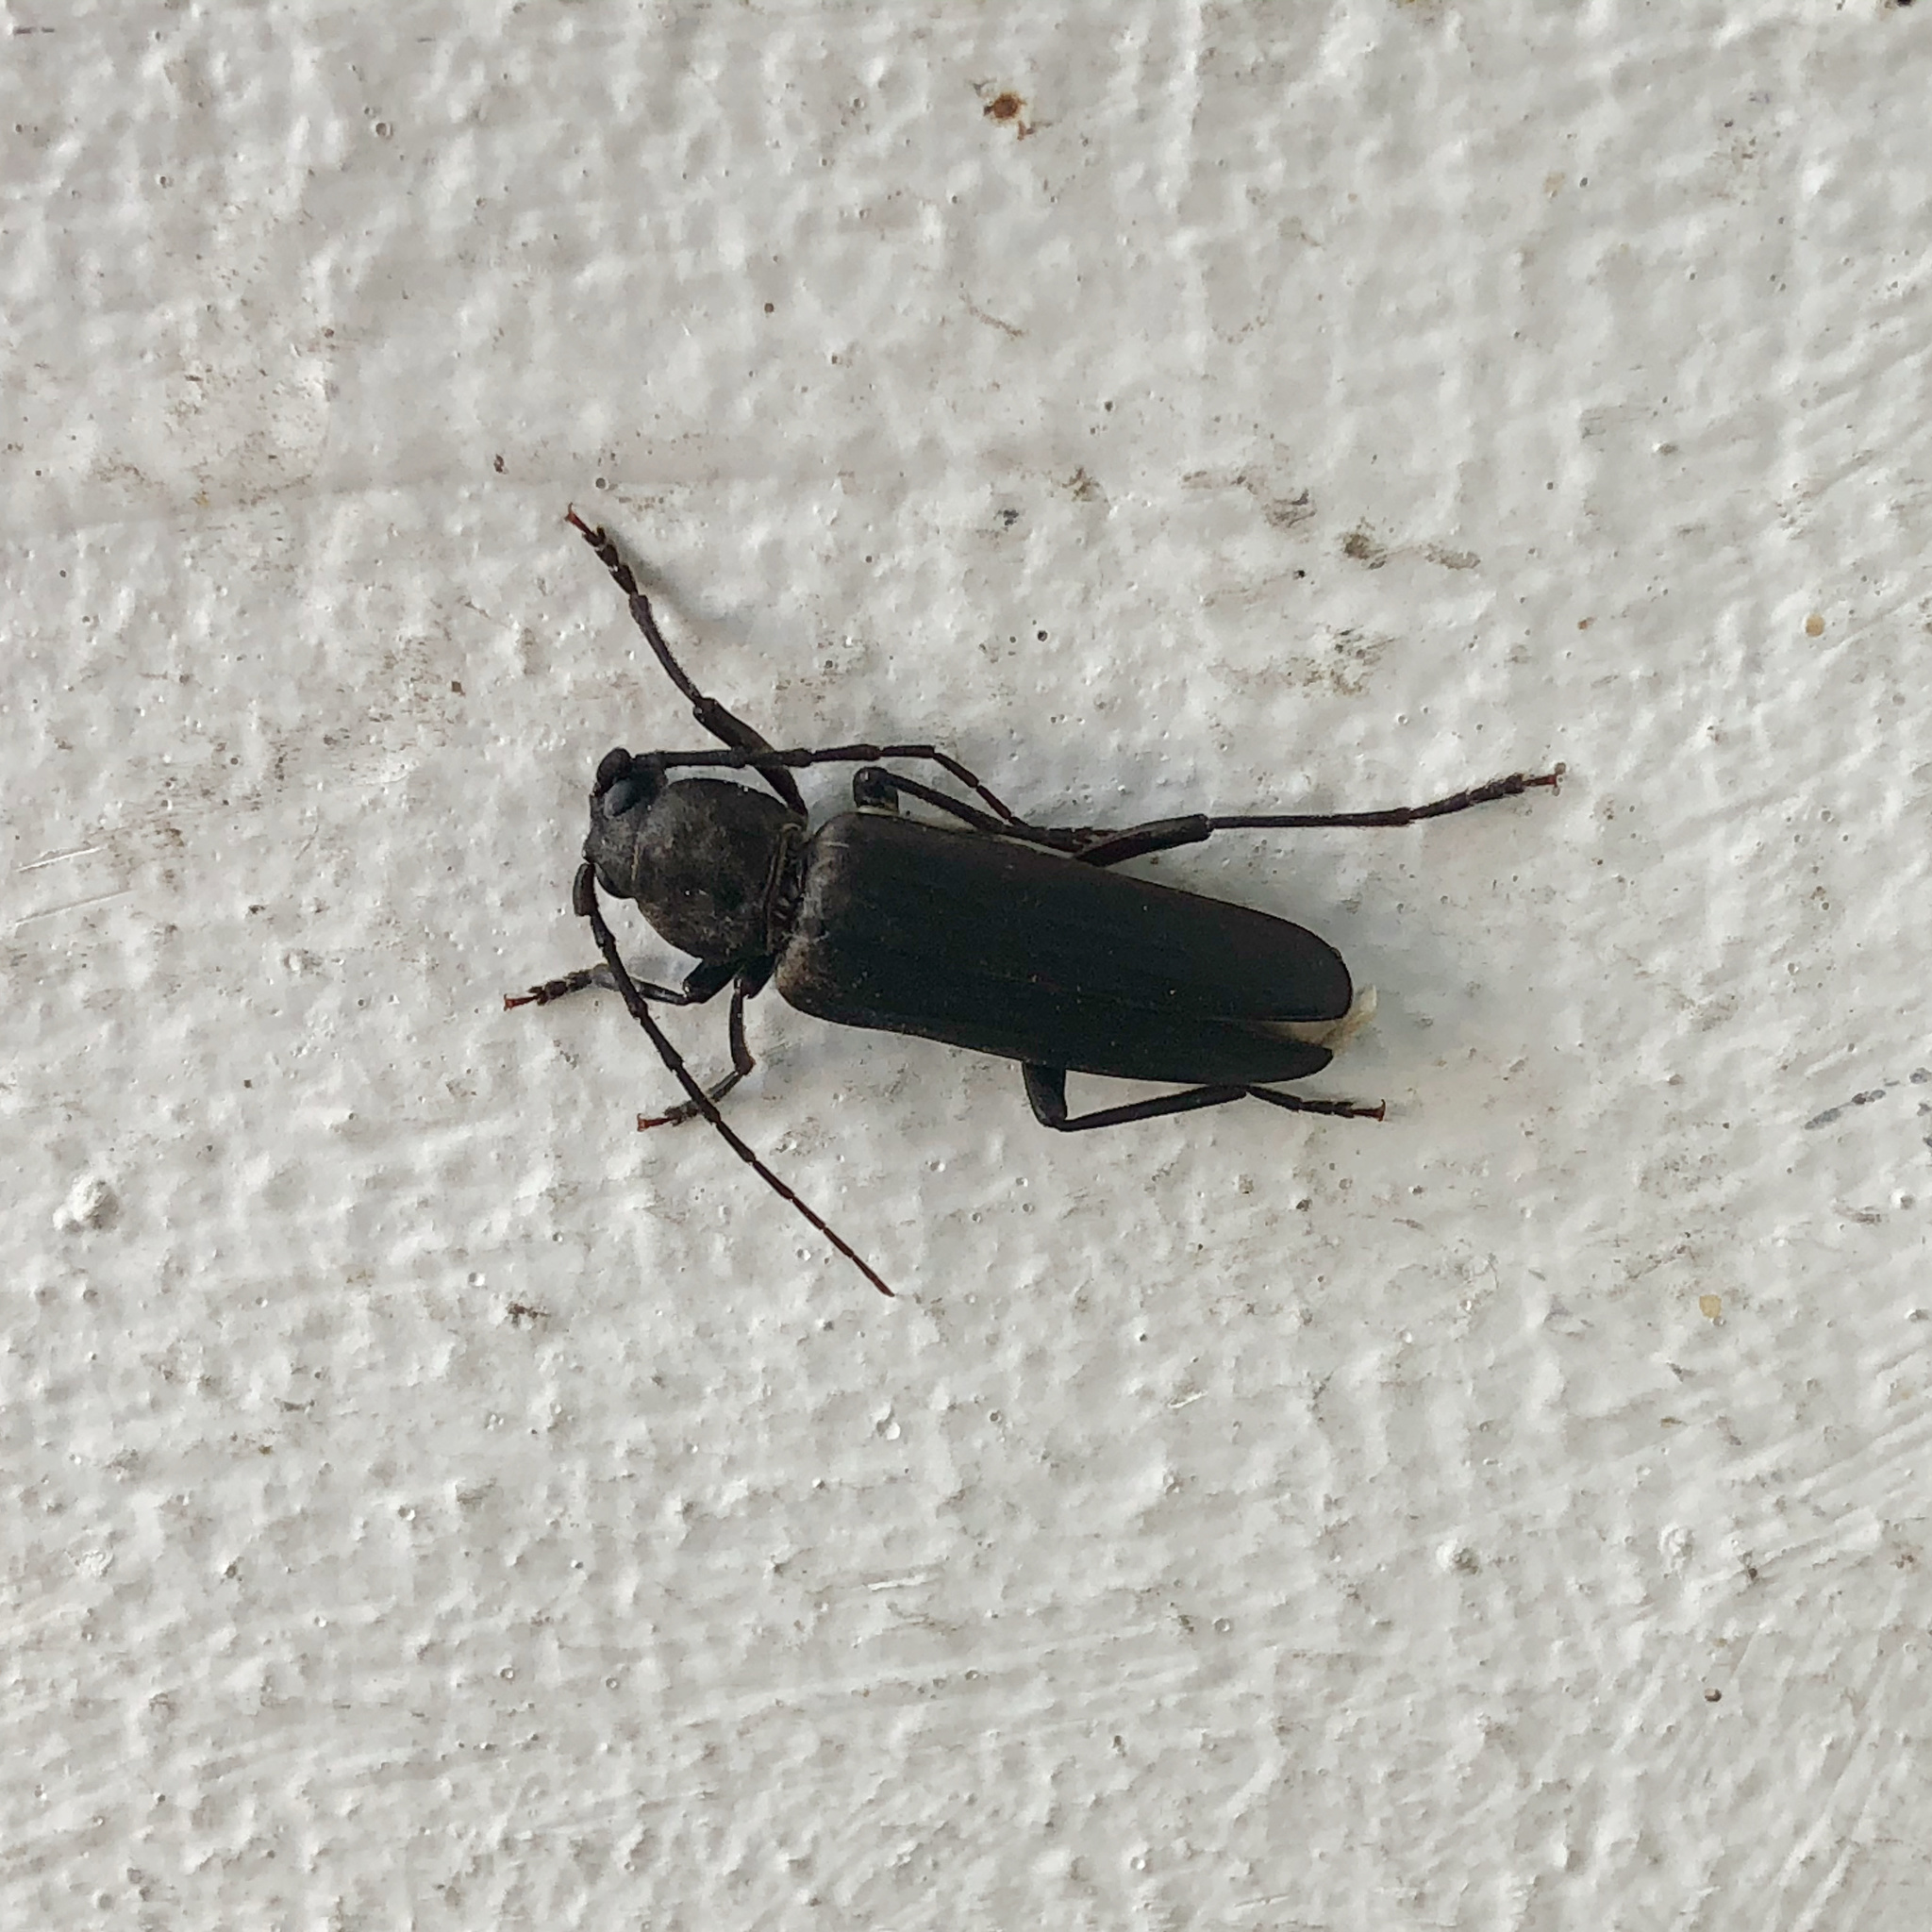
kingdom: Animalia
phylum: Arthropoda
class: Insecta
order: Coleoptera
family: Cerambycidae
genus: Arhopalus
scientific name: Arhopalus ferus
